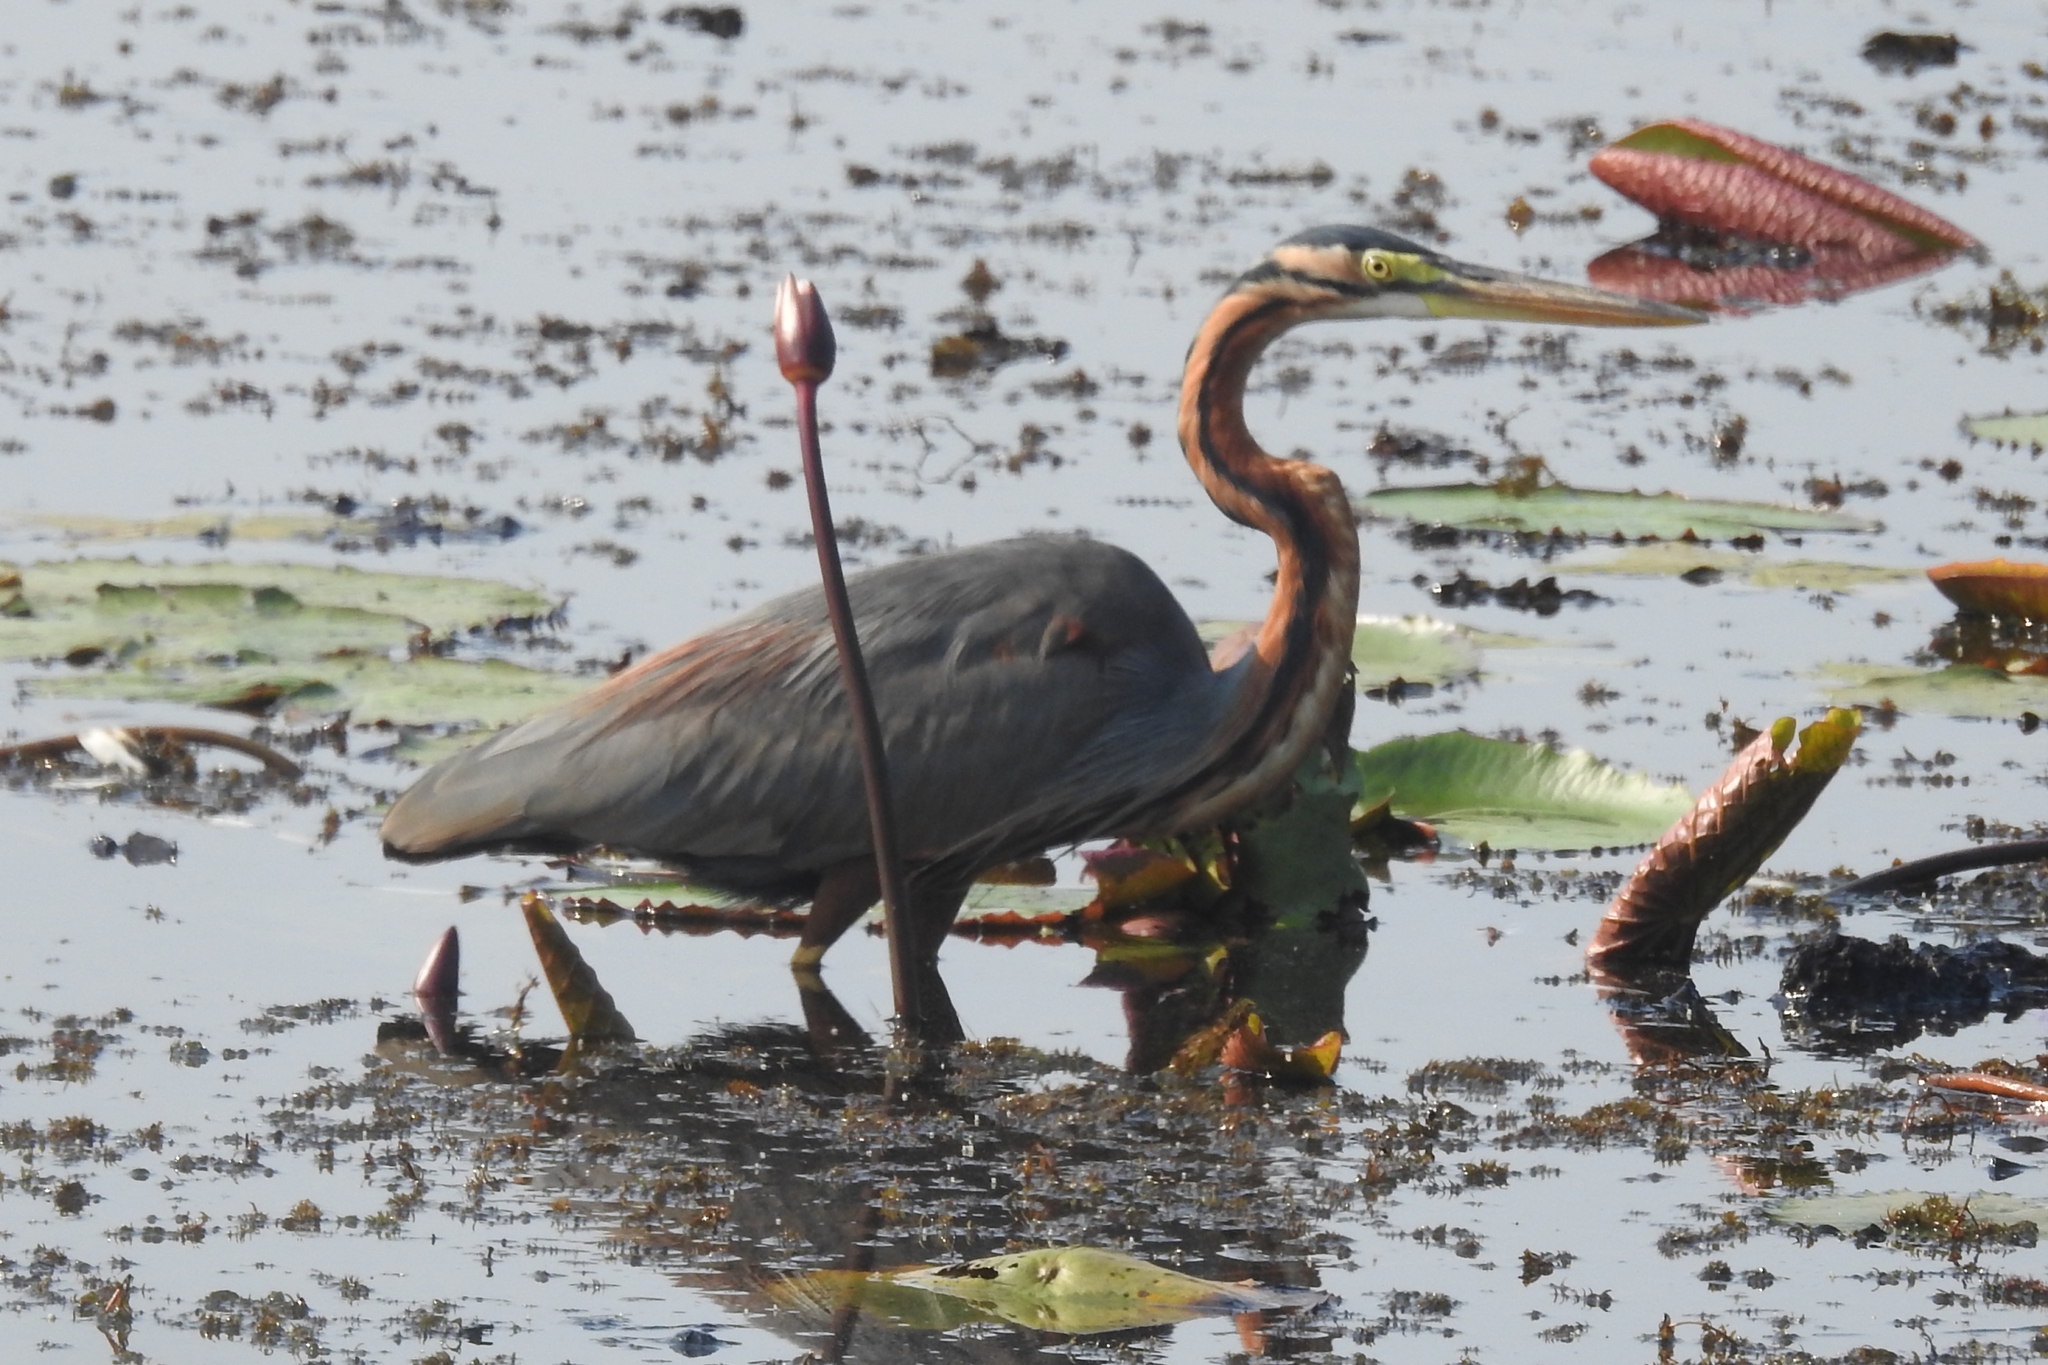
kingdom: Animalia
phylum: Chordata
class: Aves
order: Pelecaniformes
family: Ardeidae
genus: Ardea
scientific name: Ardea purpurea
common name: Purple heron
